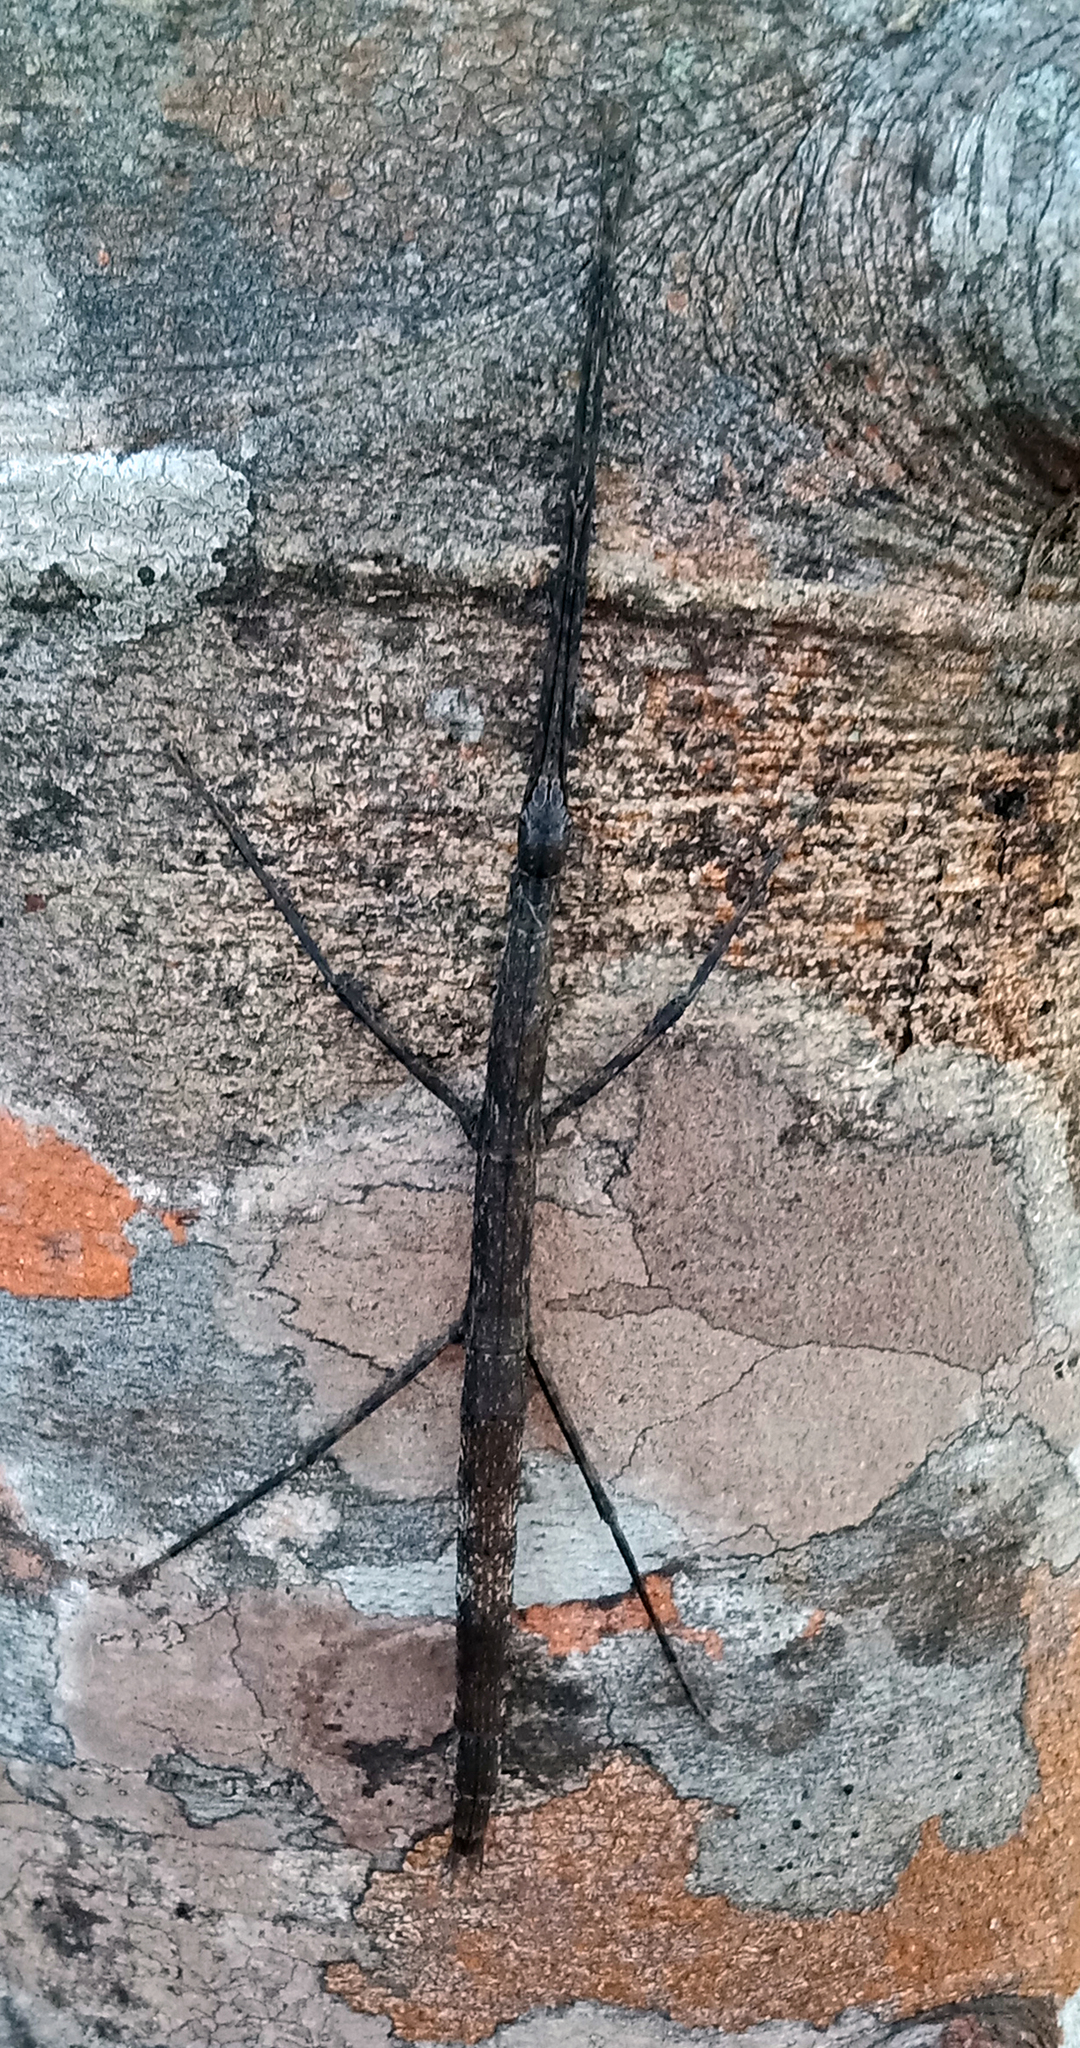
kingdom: Animalia
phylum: Arthropoda
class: Insecta
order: Phasmida
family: Phasmatidae
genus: Clitarchus
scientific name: Clitarchus hookeri
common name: Smooth stick insect
